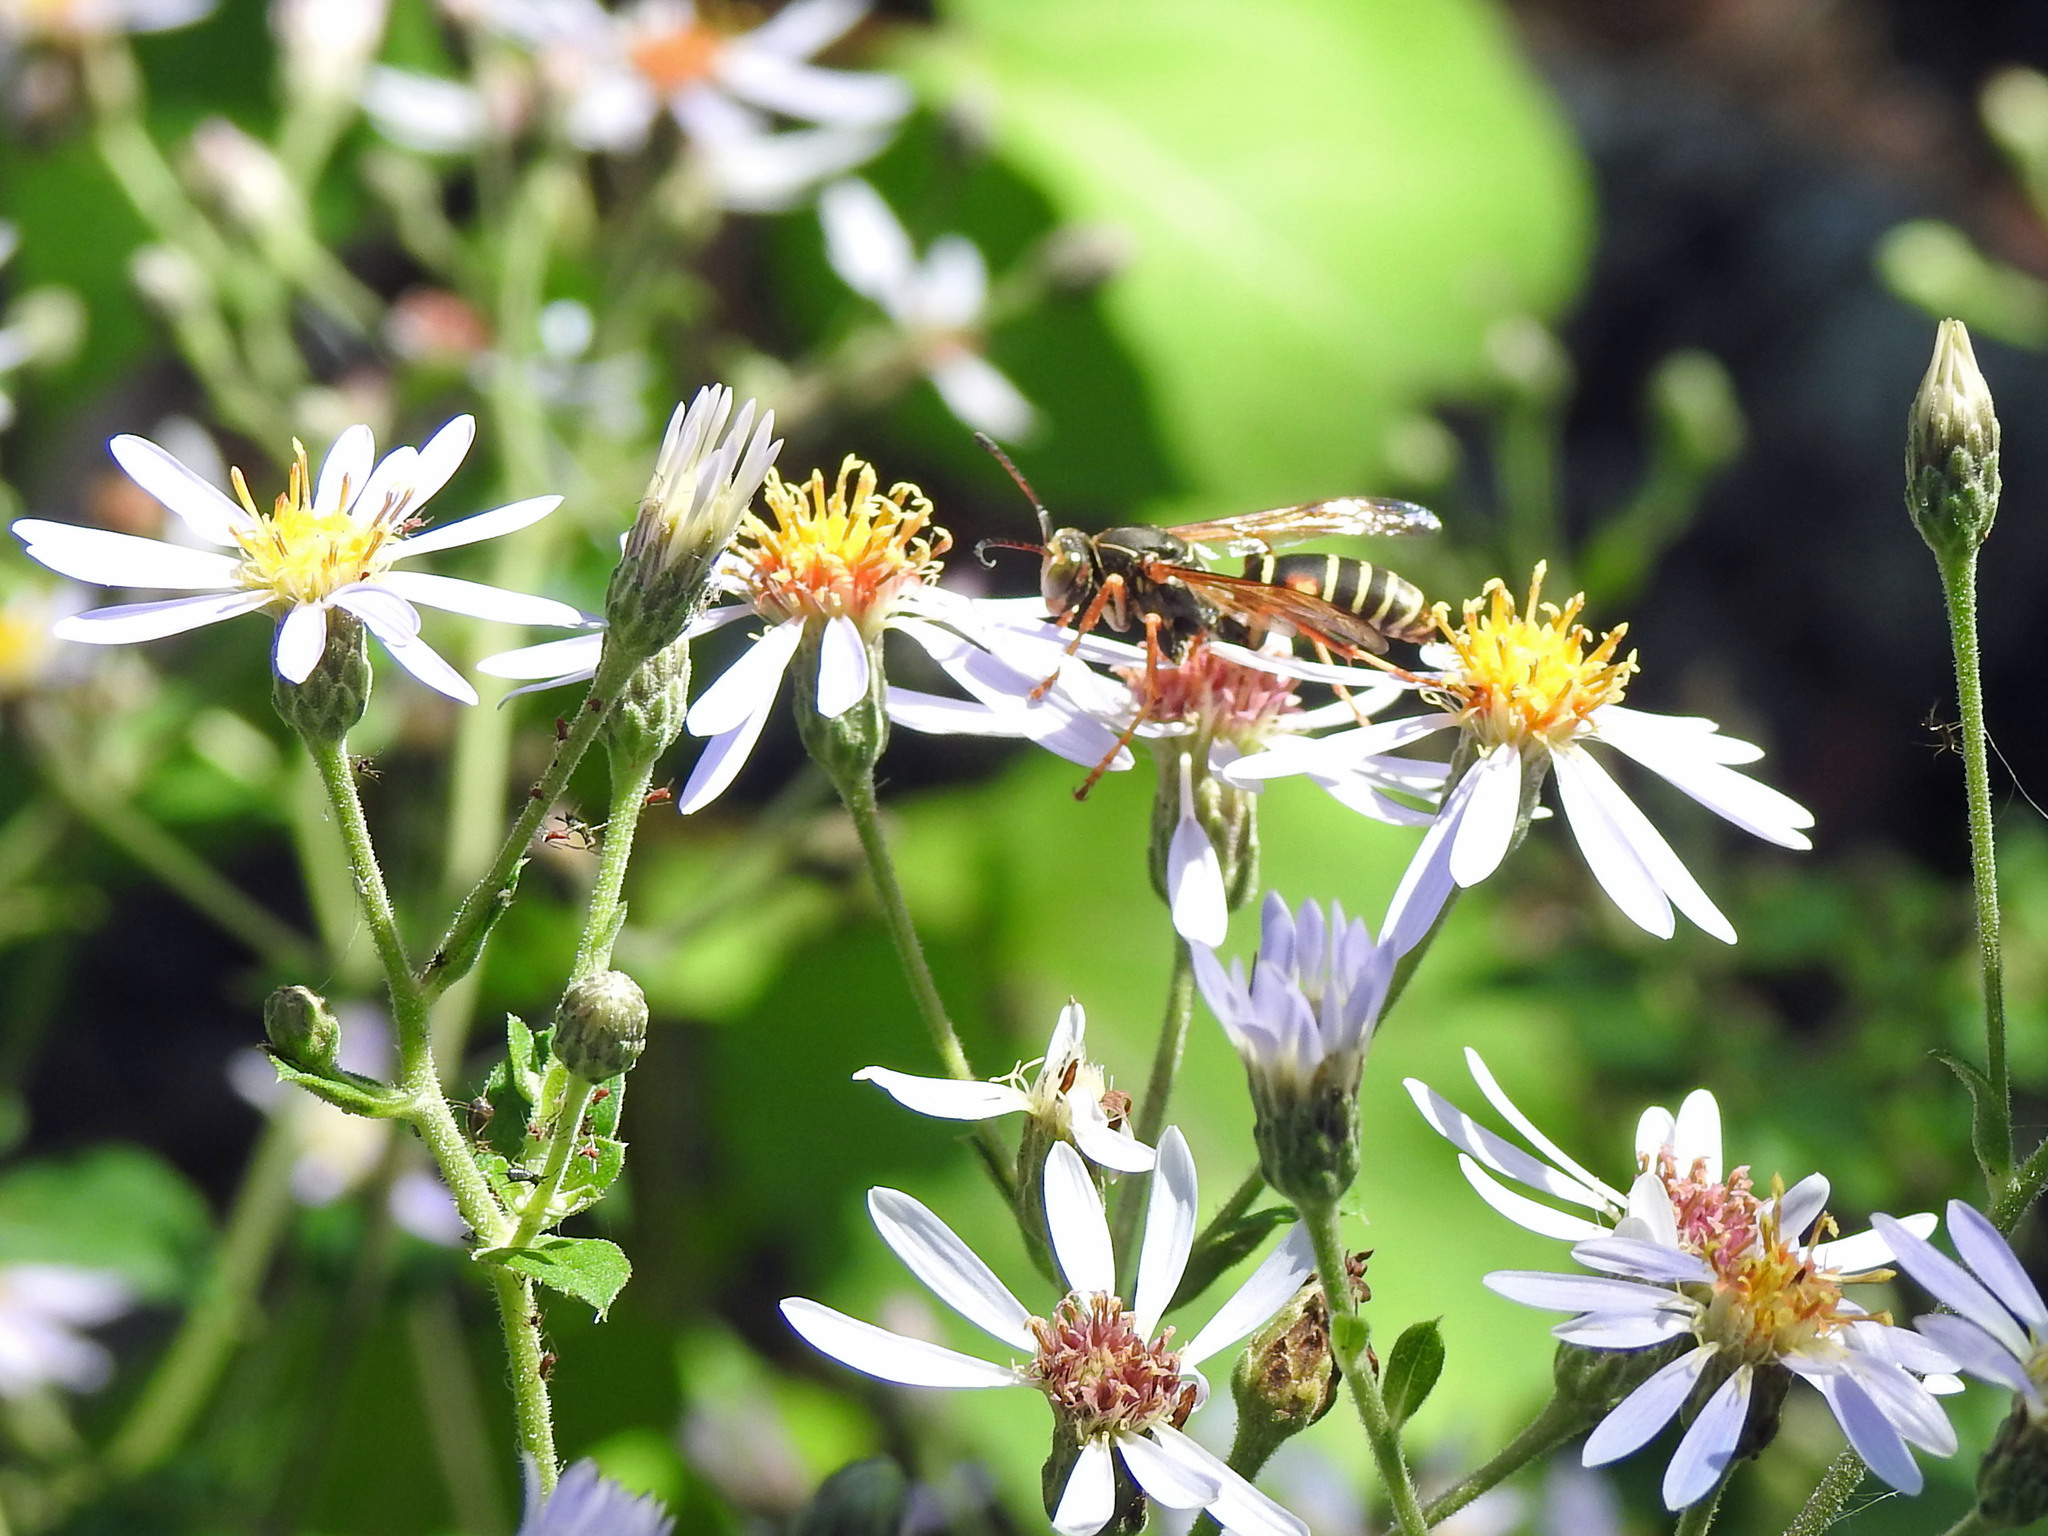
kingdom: Animalia
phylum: Arthropoda
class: Insecta
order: Hymenoptera
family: Eumenidae
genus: Polistes
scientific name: Polistes fuscatus
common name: Dark paper wasp
